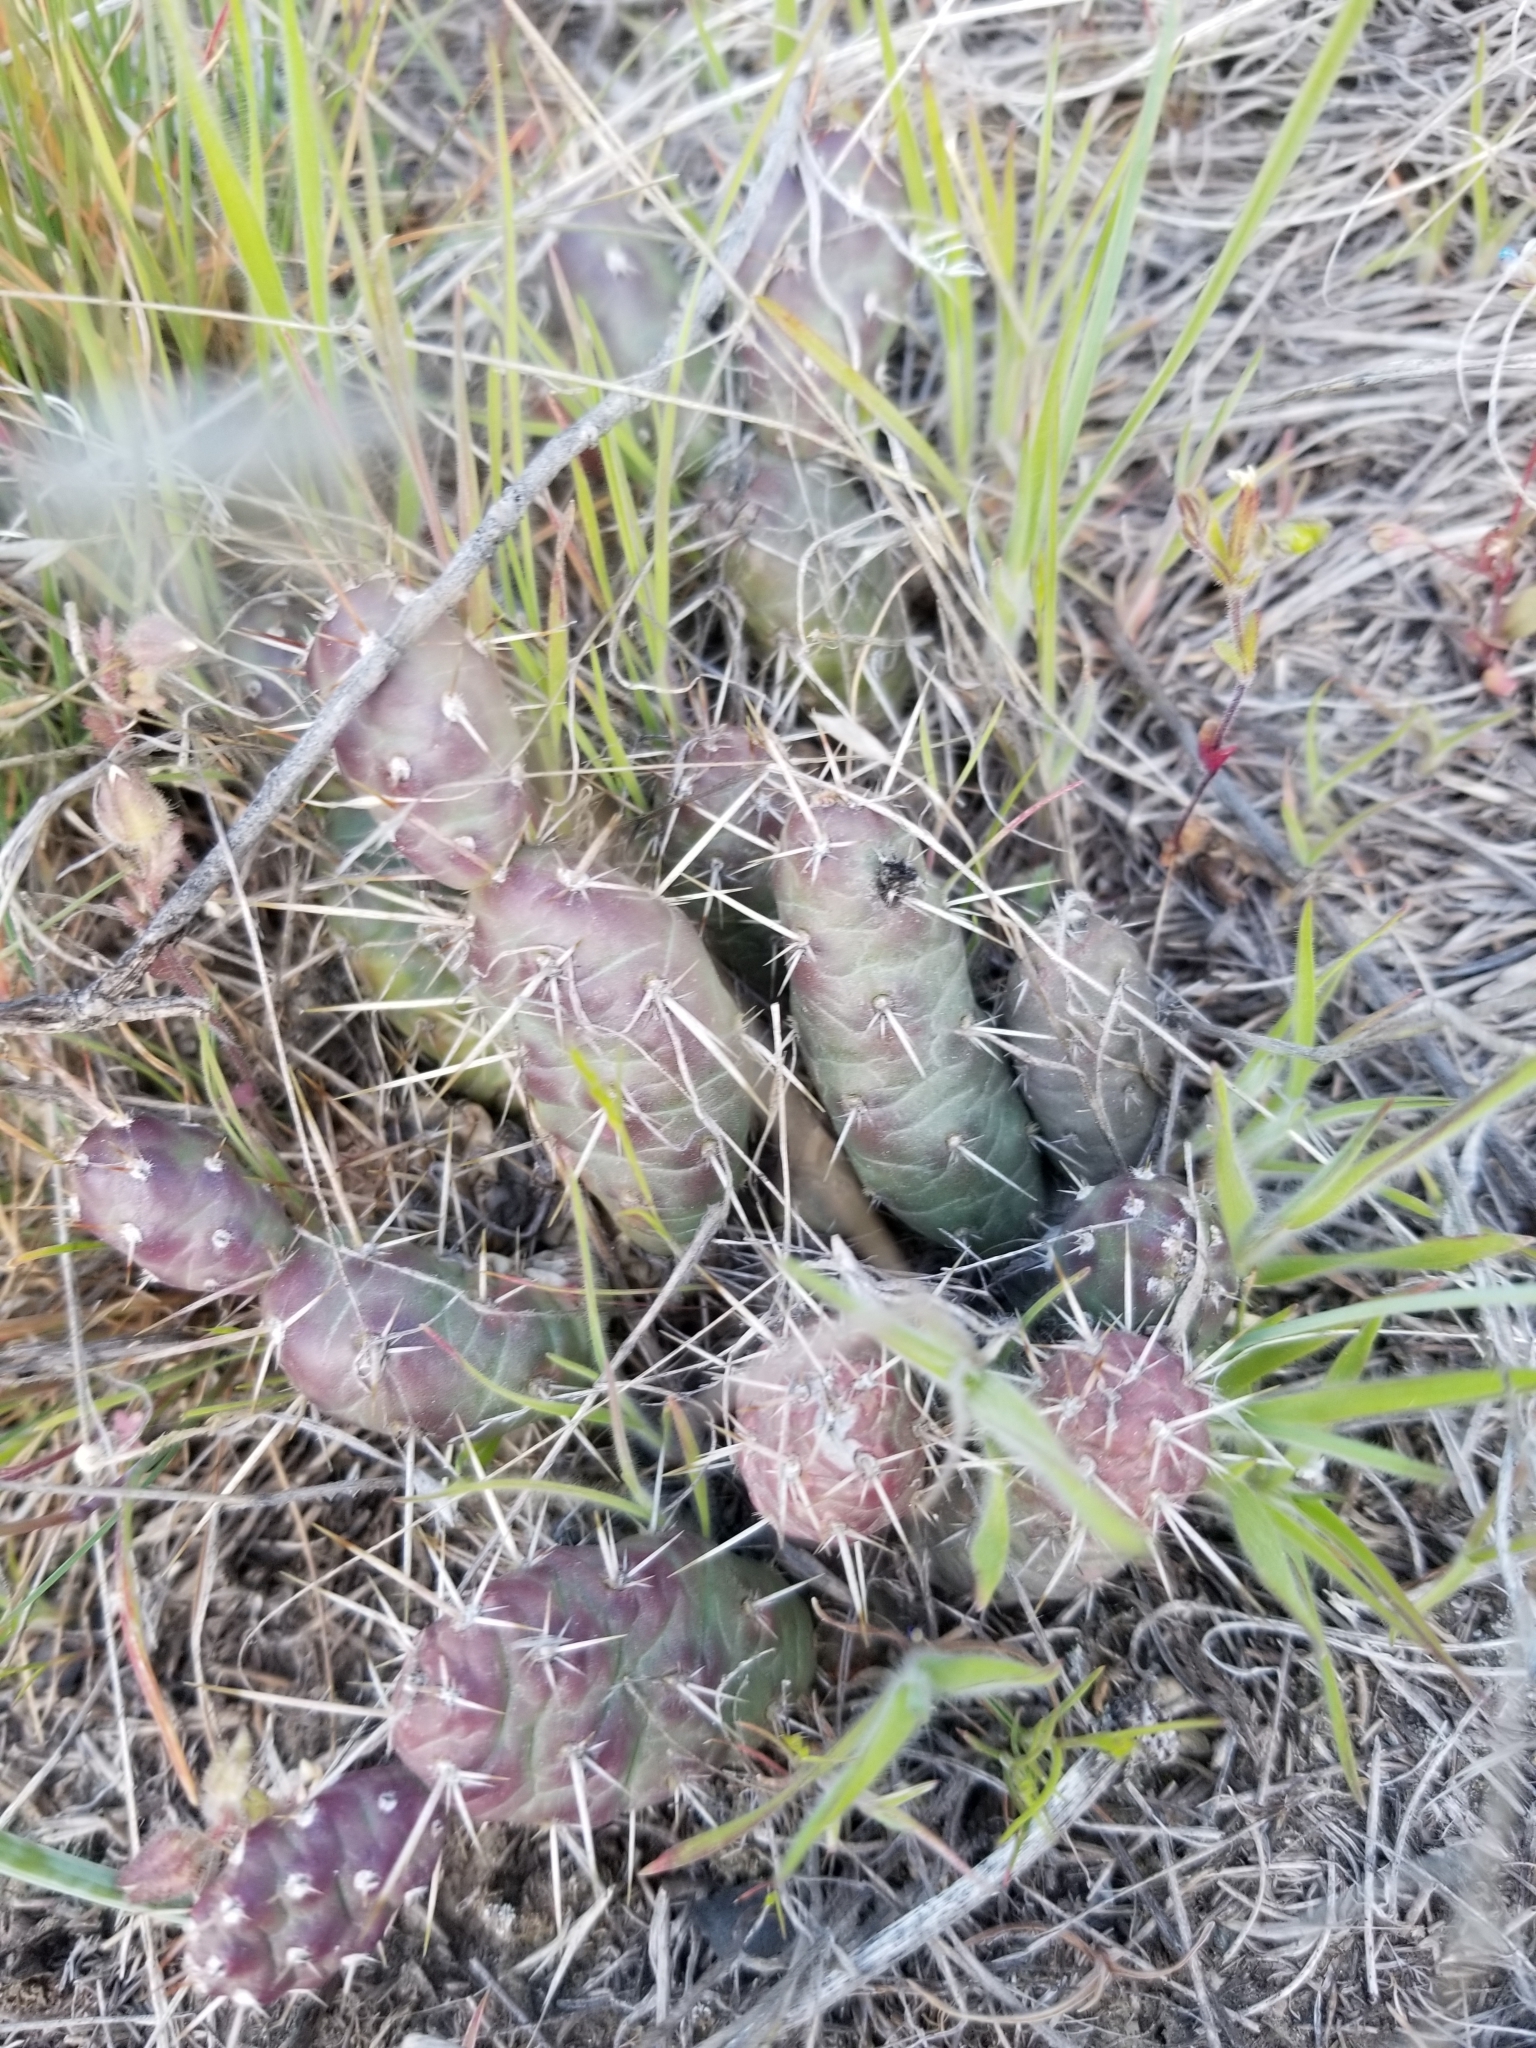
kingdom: Plantae
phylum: Tracheophyta
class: Magnoliopsida
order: Caryophyllales
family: Cactaceae
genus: Opuntia
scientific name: Opuntia fragilis
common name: Brittle cactus
